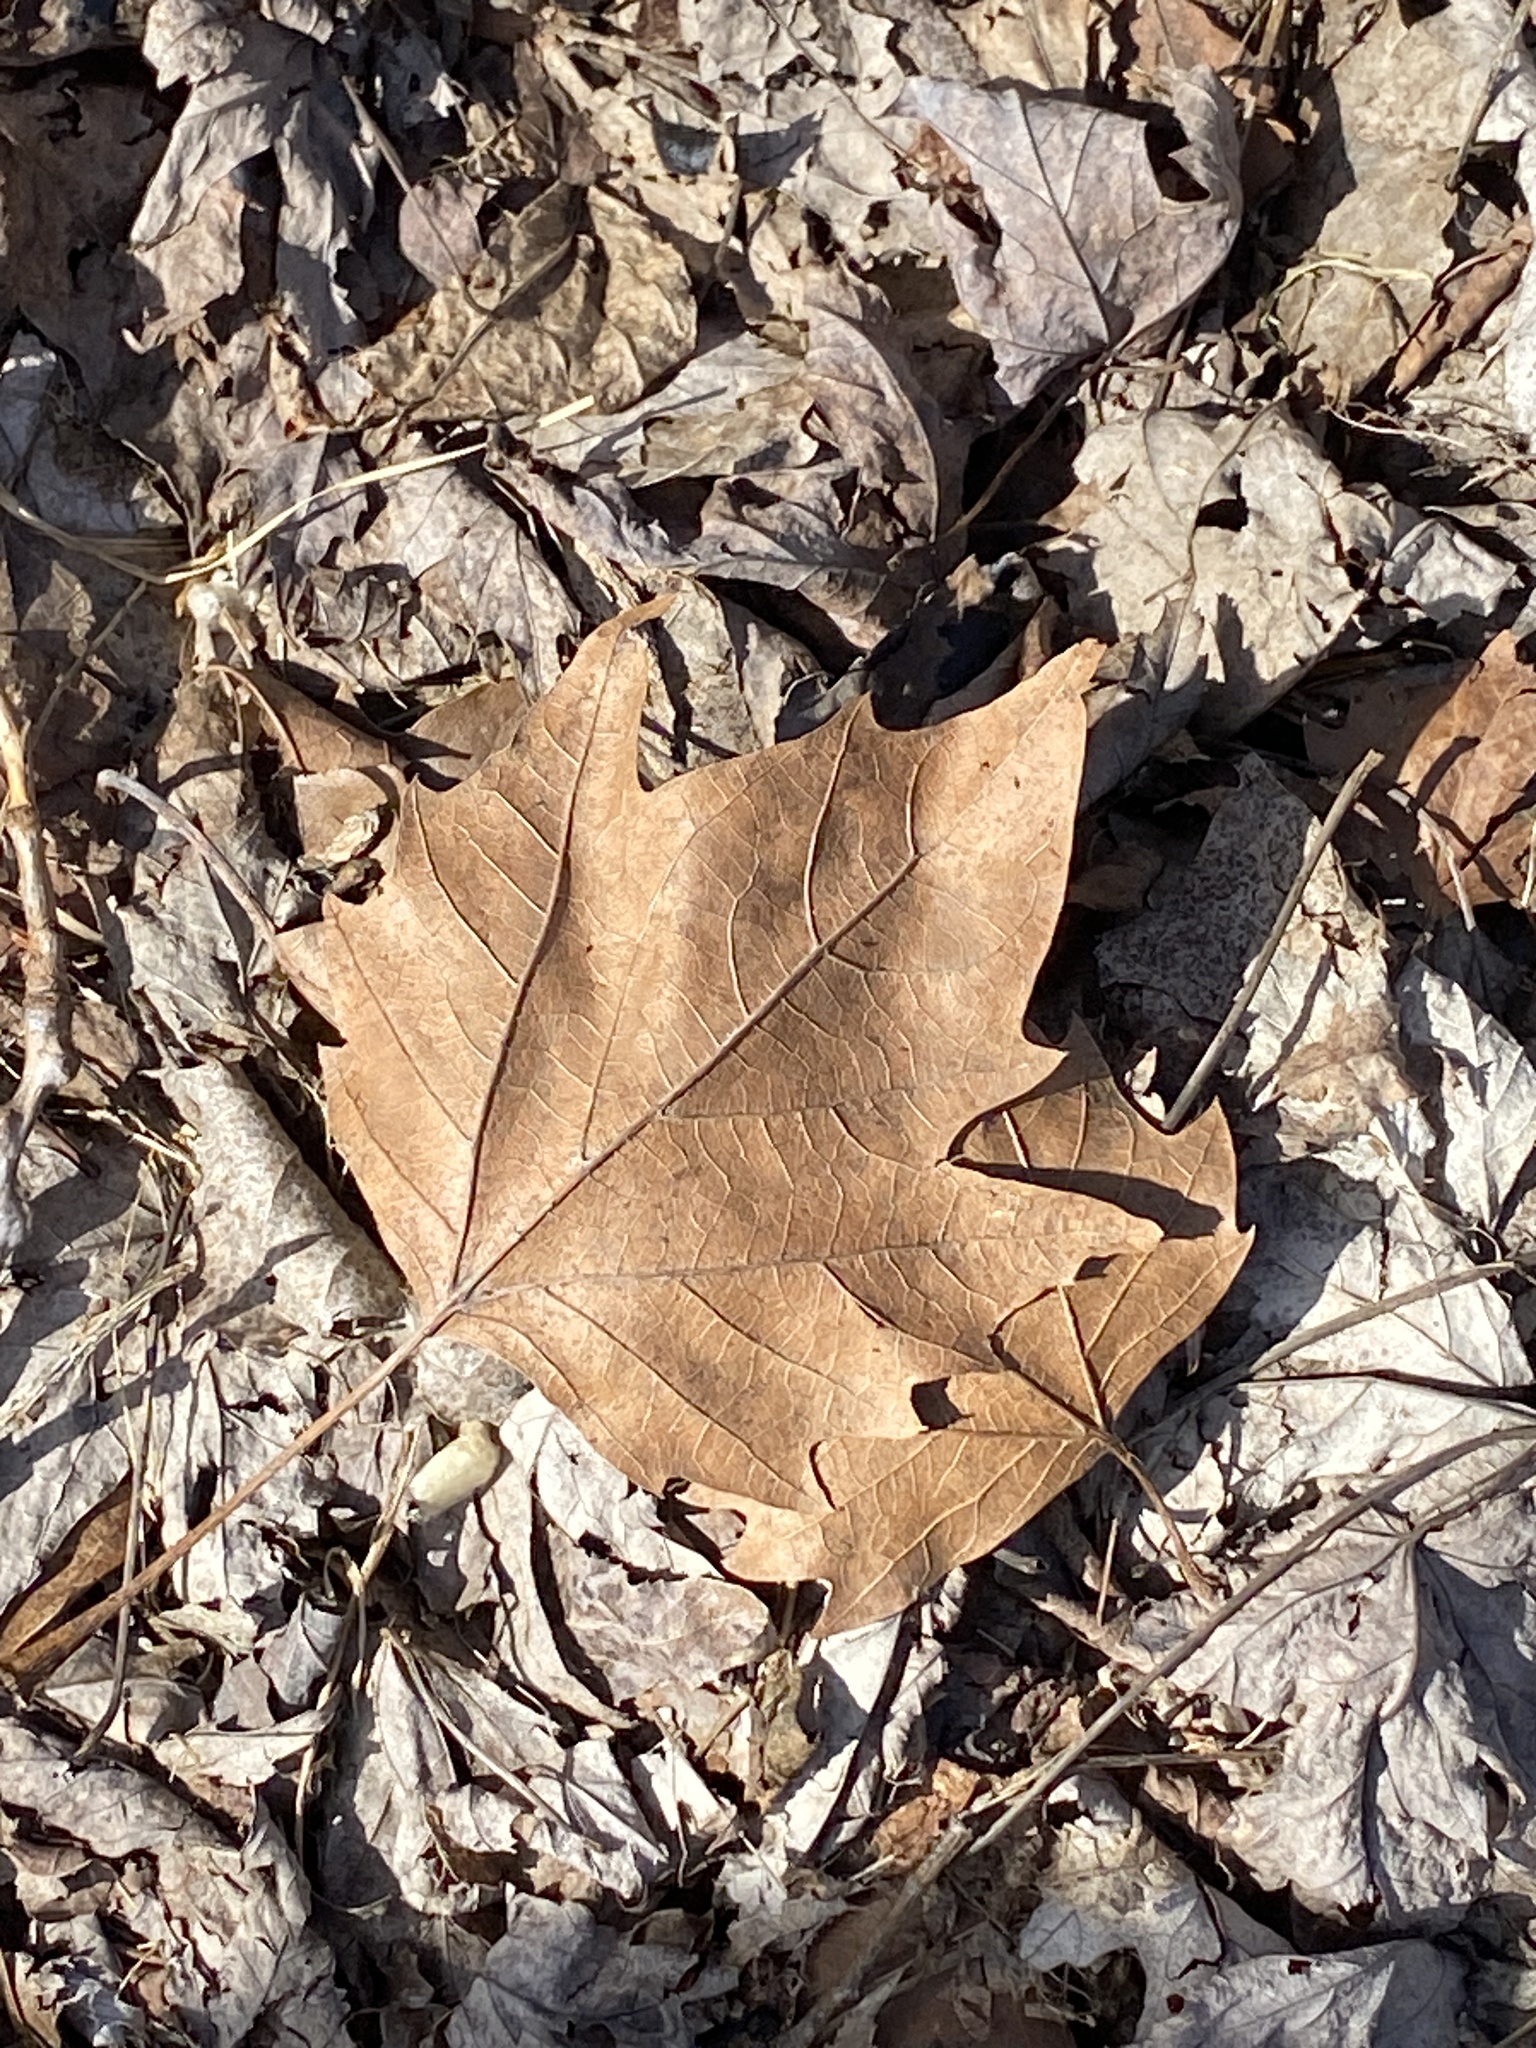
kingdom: Plantae
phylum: Tracheophyta
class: Magnoliopsida
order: Proteales
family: Platanaceae
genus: Platanus
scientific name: Platanus occidentalis
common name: American sycamore
